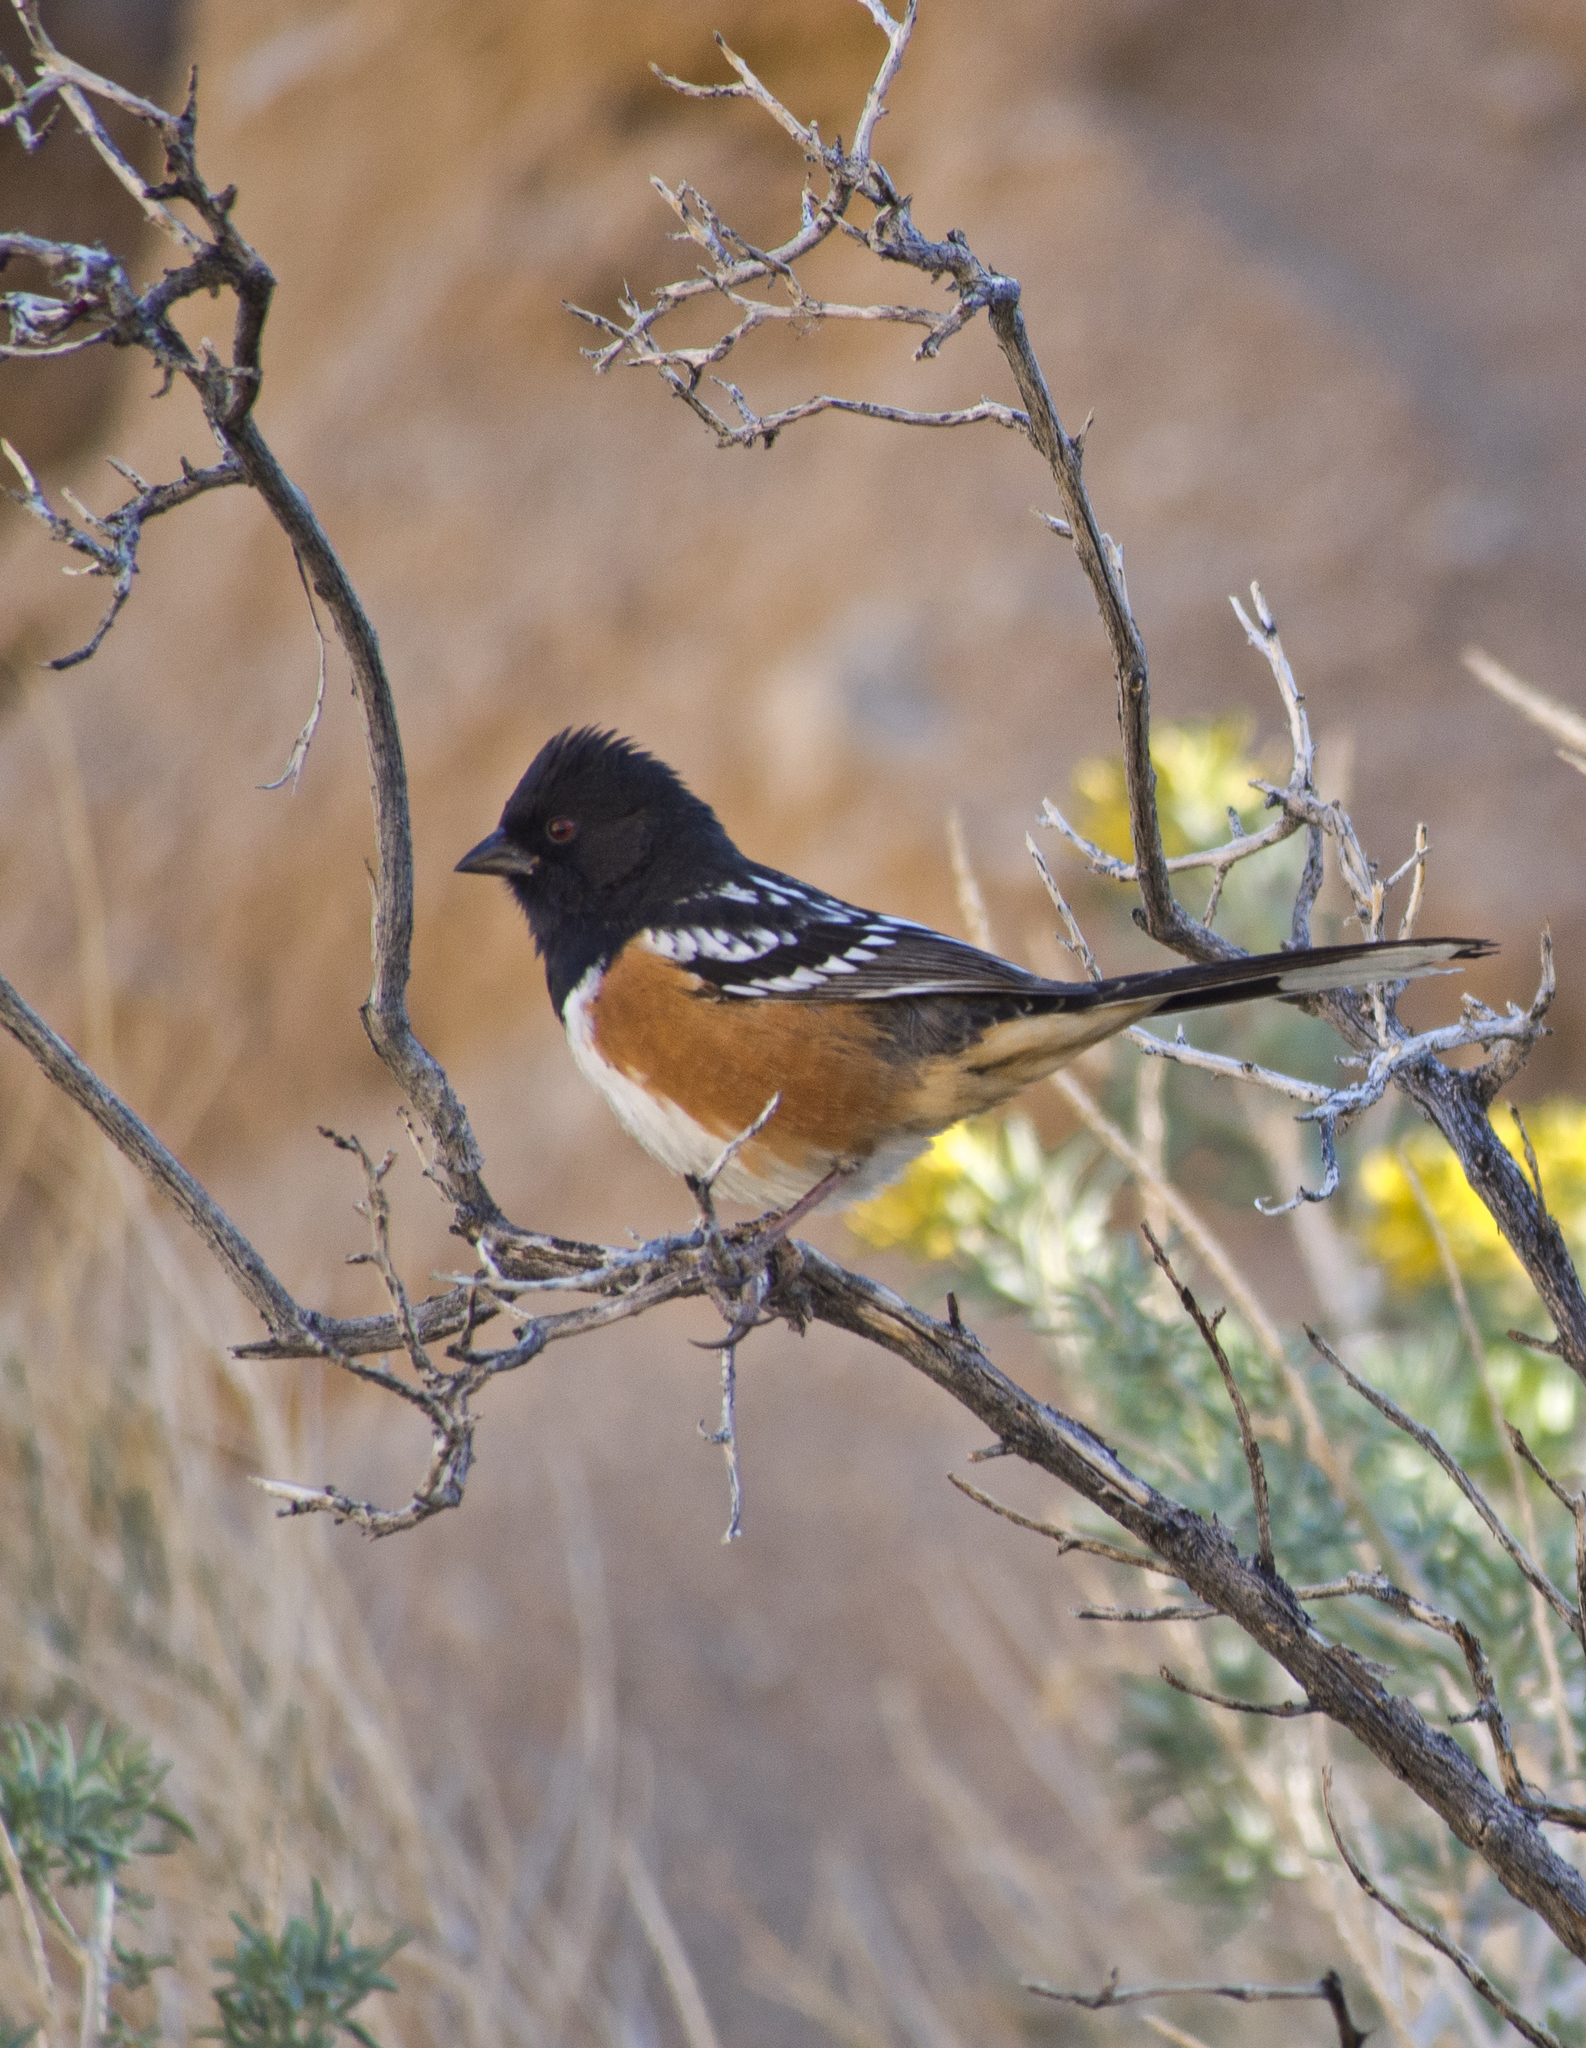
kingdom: Animalia
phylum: Chordata
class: Aves
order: Passeriformes
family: Passerellidae
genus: Pipilo
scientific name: Pipilo maculatus
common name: Spotted towhee
